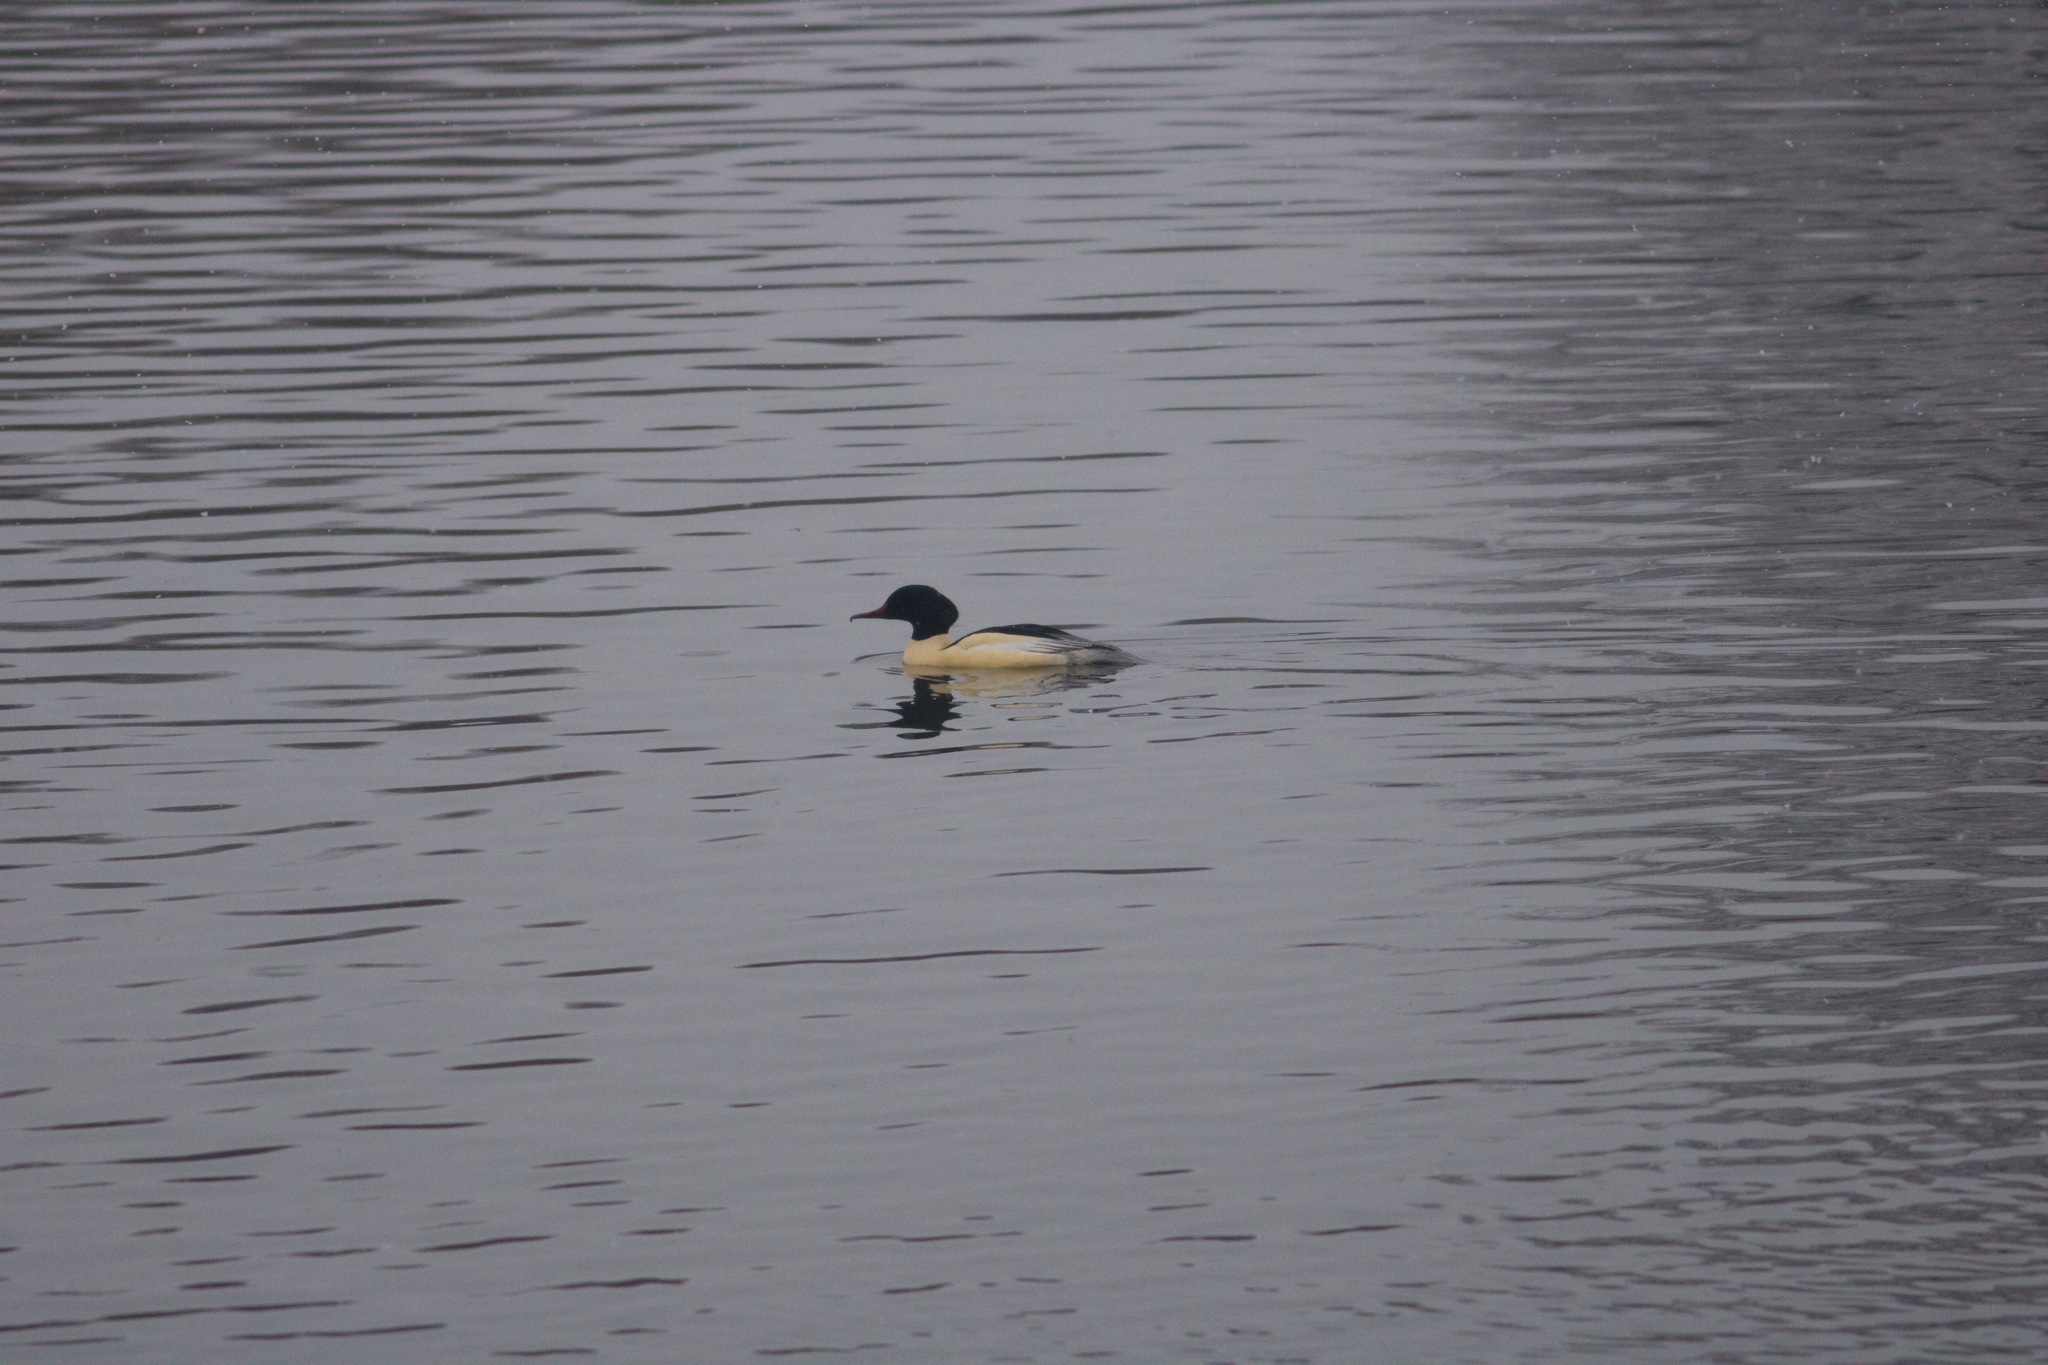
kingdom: Animalia
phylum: Chordata
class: Aves
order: Anseriformes
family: Anatidae
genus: Mergus
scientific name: Mergus merganser
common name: Common merganser
